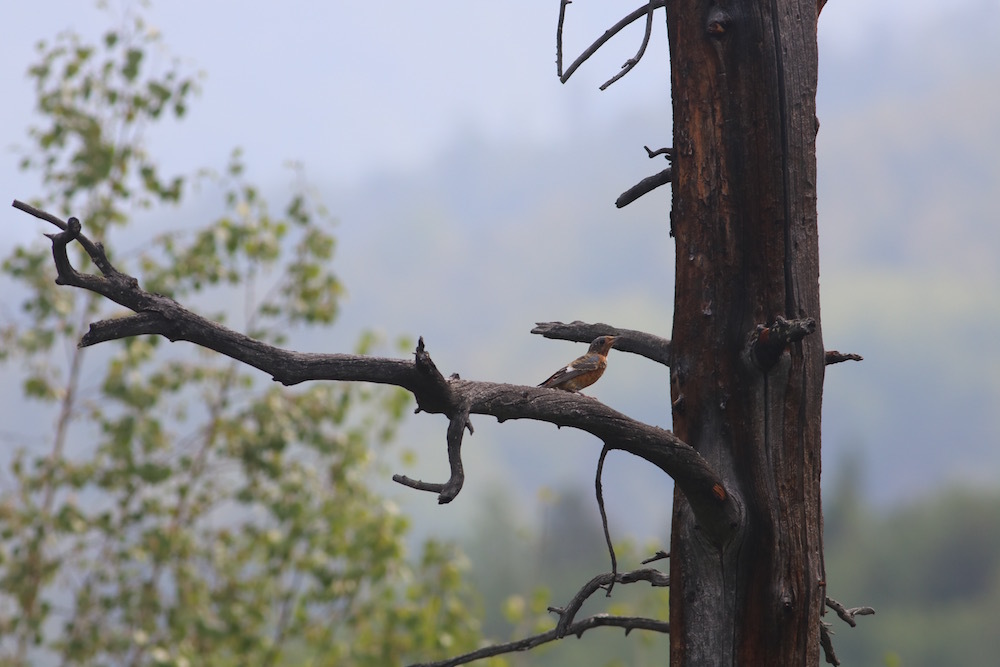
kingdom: Animalia
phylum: Chordata
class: Aves
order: Passeriformes
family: Muscicapidae
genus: Monticola
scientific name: Monticola gularis
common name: White-throated rock thrush
